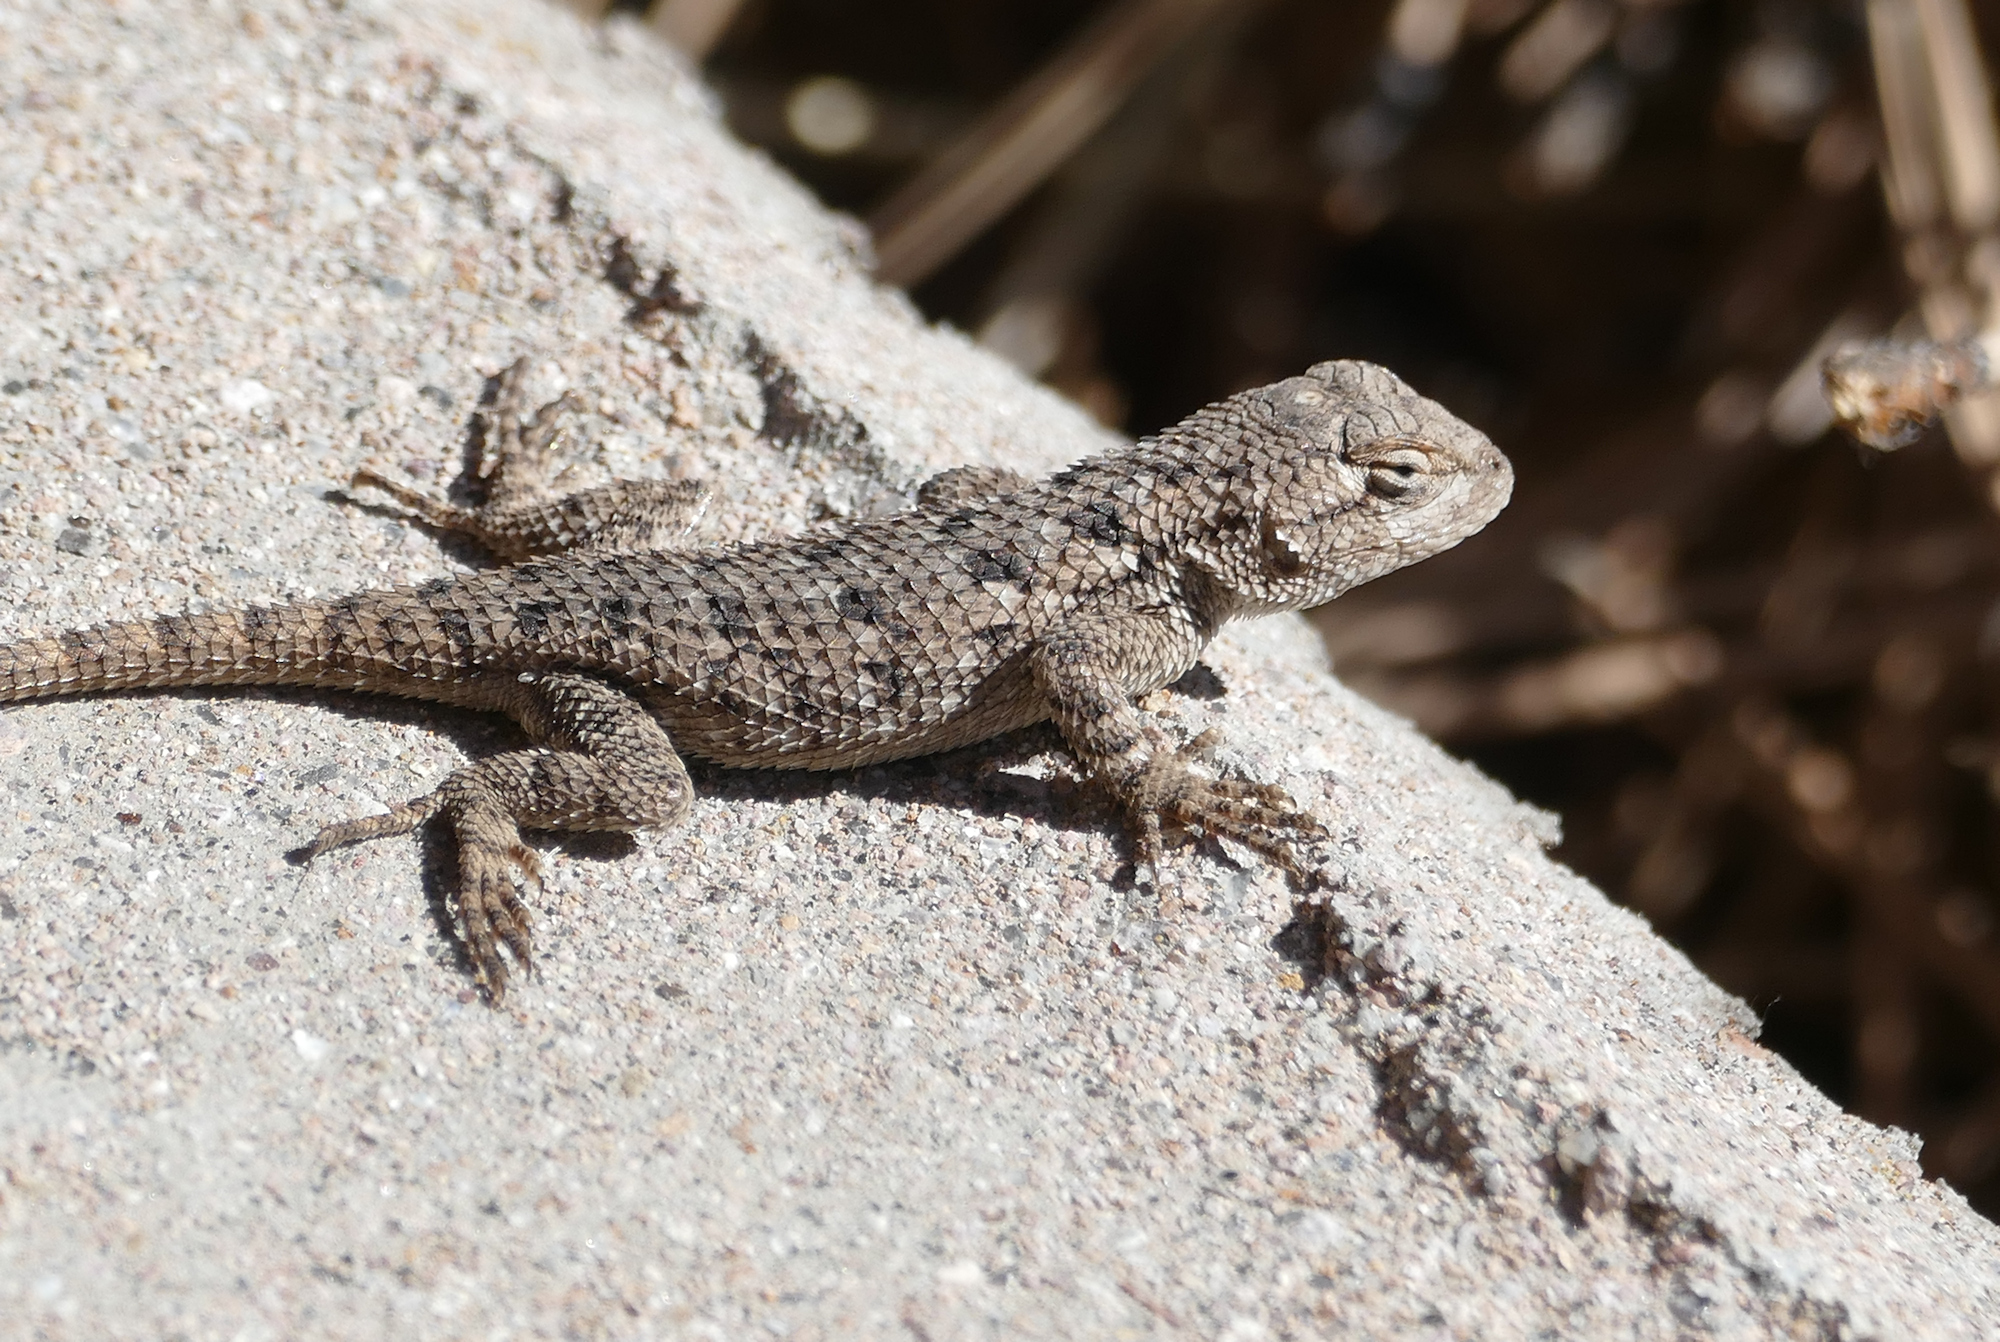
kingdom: Animalia
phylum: Chordata
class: Squamata
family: Phrynosomatidae
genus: Sceloporus
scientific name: Sceloporus clarkii
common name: Clark's spiny lizard
